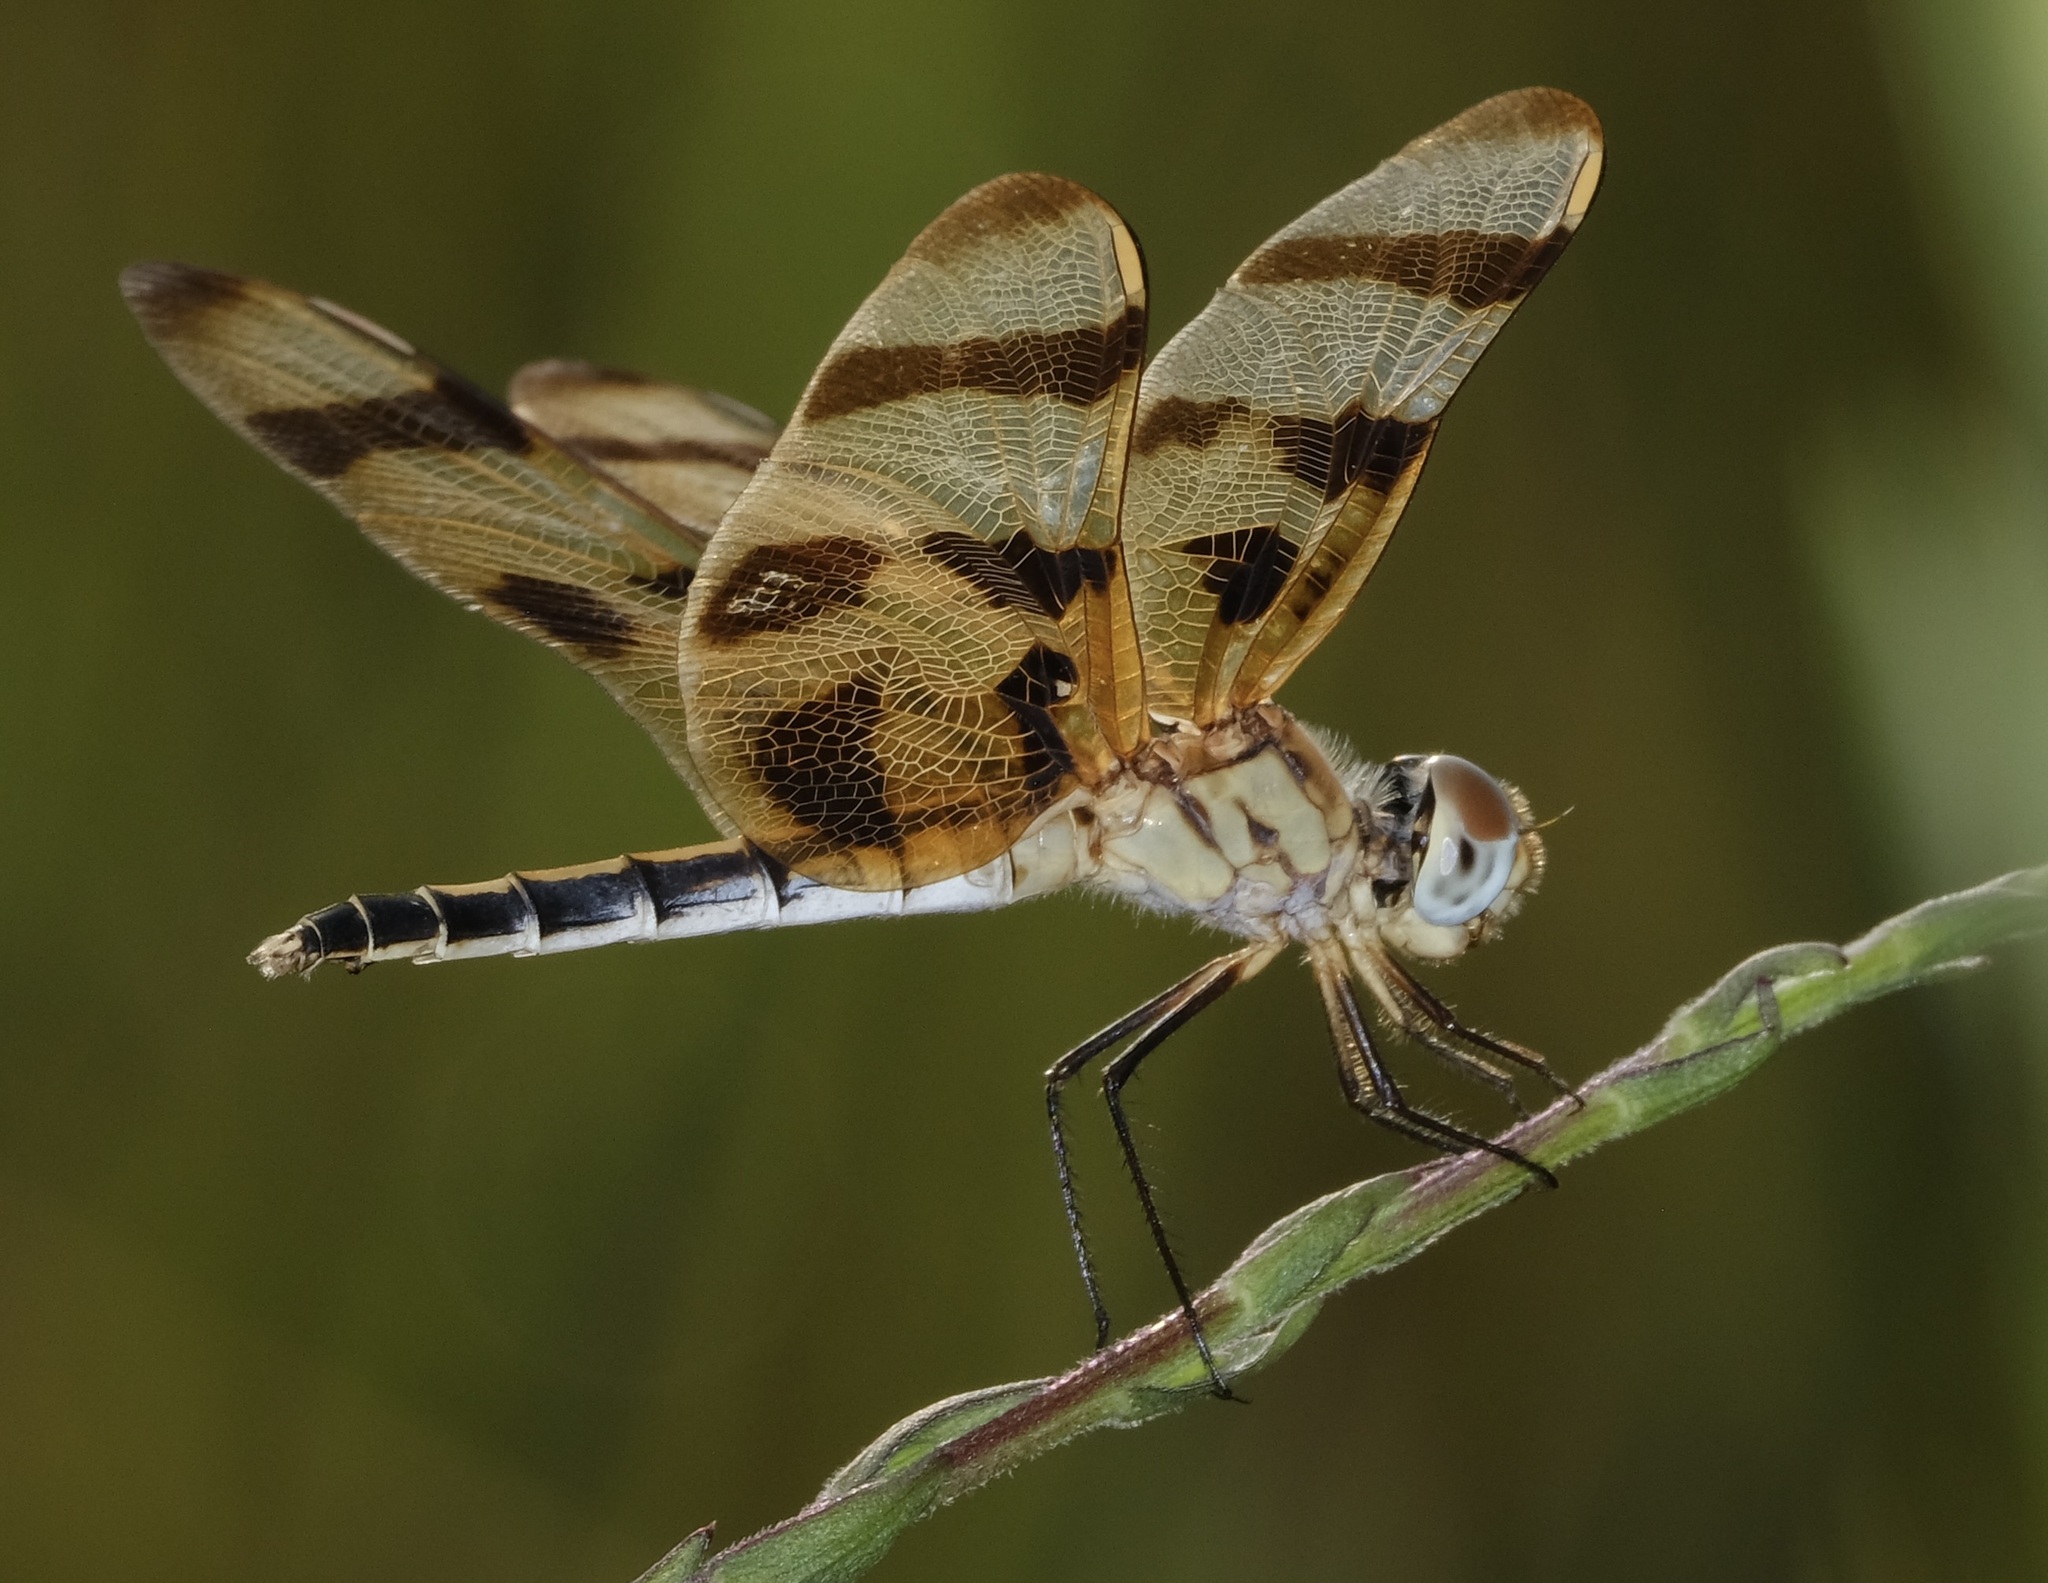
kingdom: Animalia
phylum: Arthropoda
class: Insecta
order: Odonata
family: Libellulidae
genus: Celithemis
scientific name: Celithemis eponina
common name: Halloween pennant
